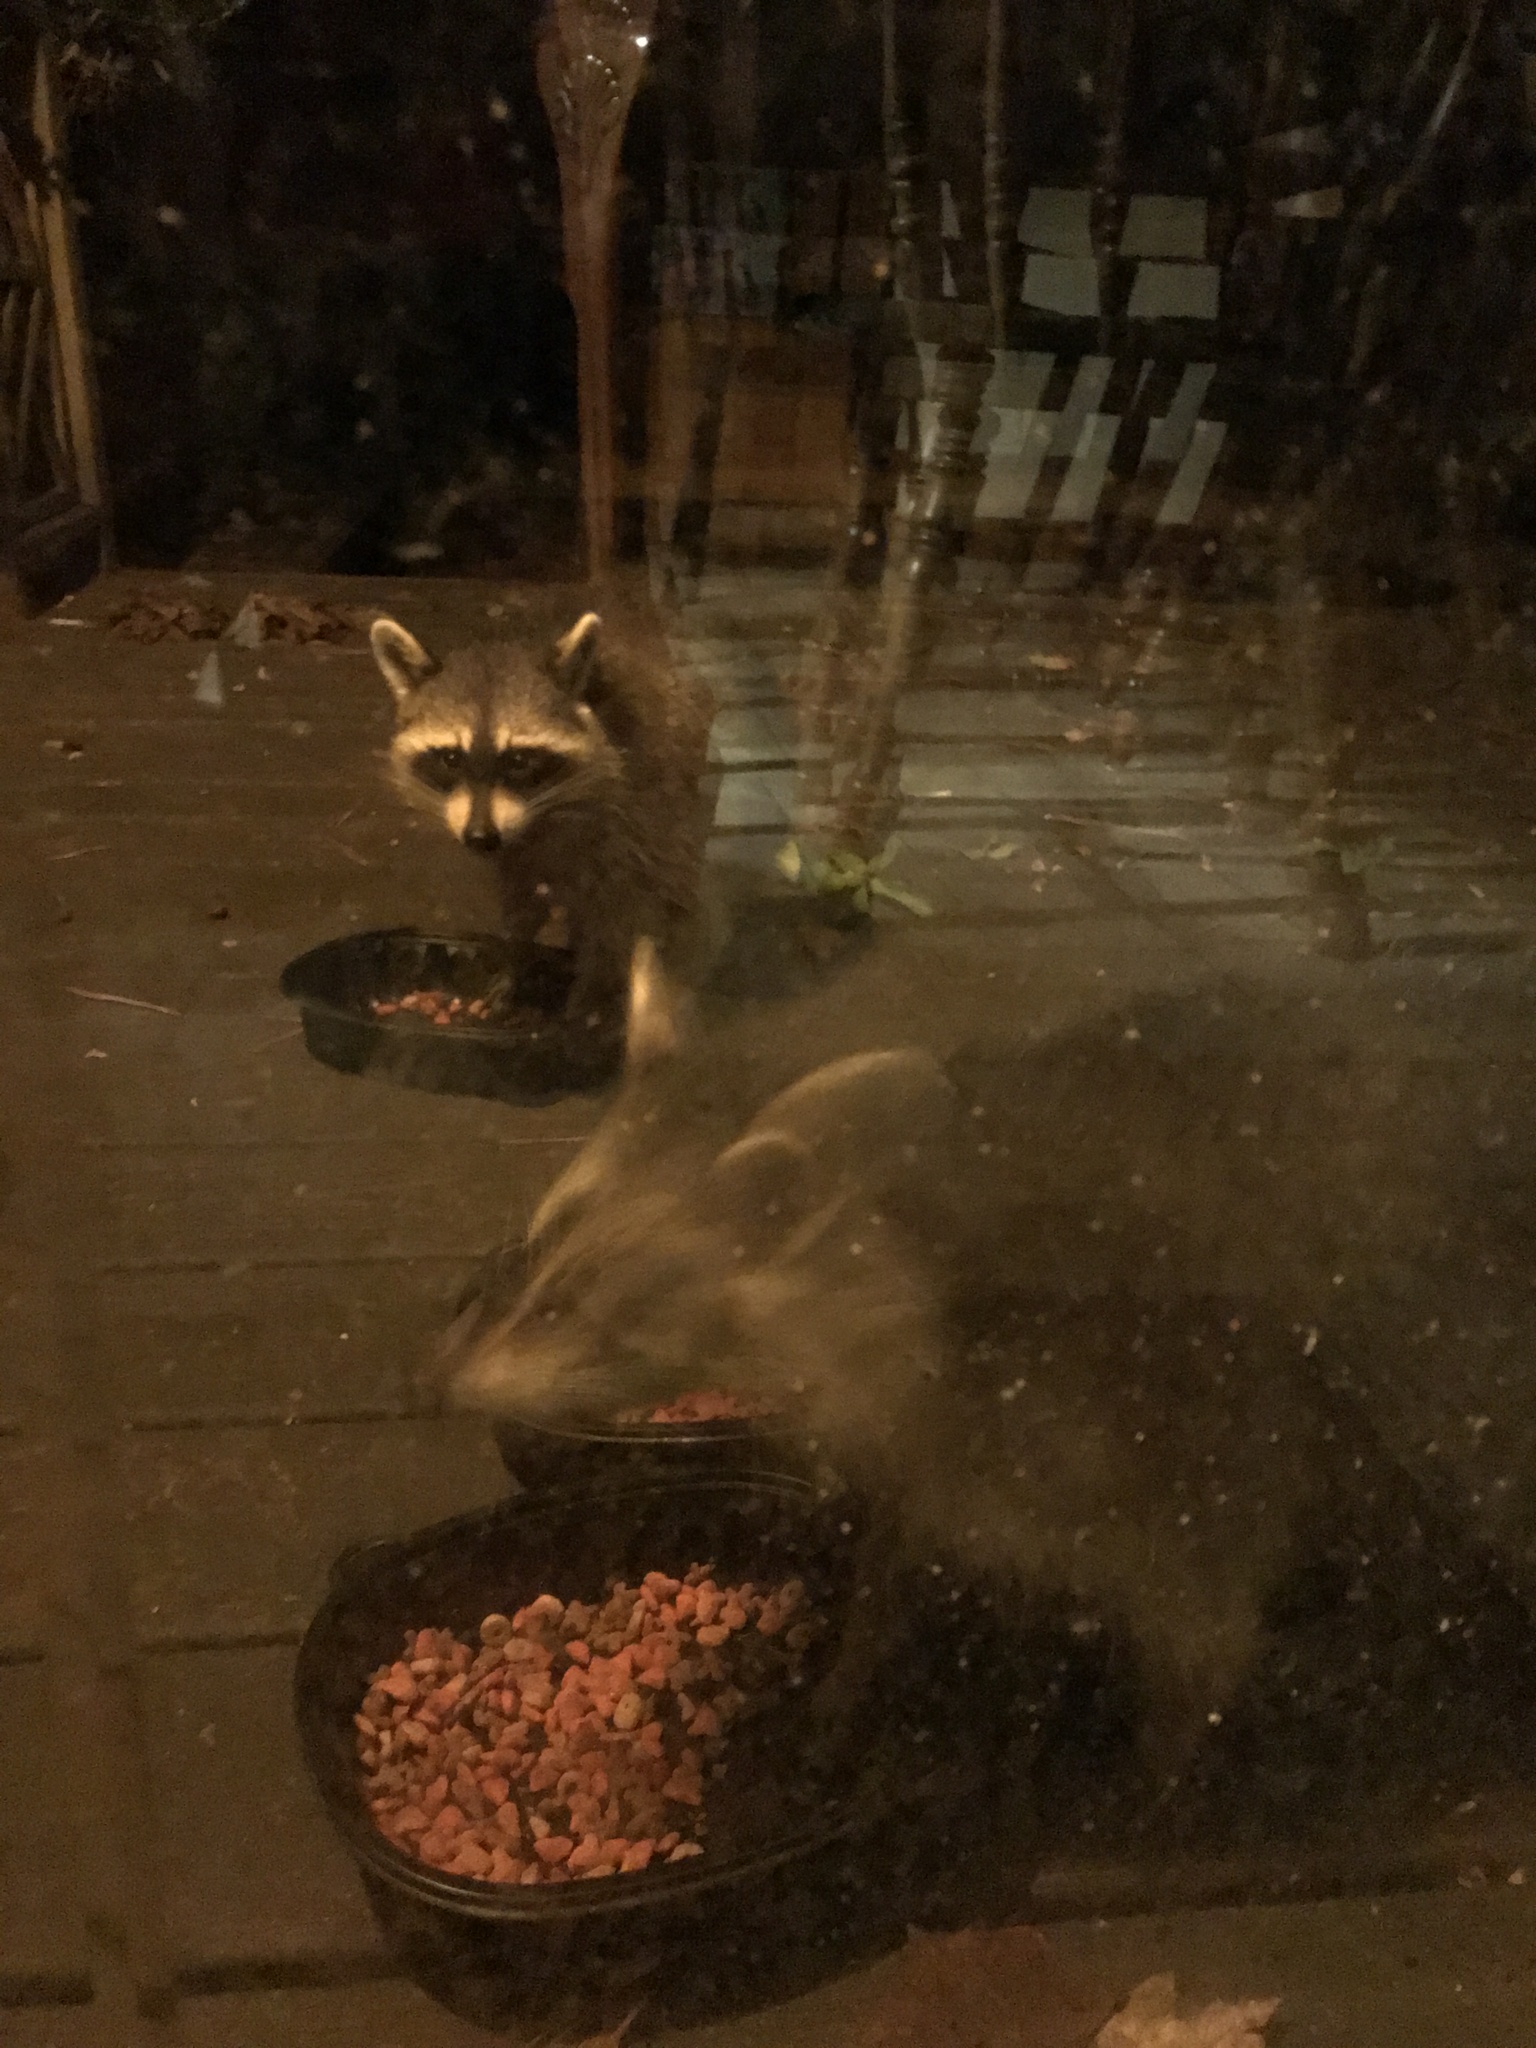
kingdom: Animalia
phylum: Chordata
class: Mammalia
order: Carnivora
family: Procyonidae
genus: Procyon
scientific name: Procyon lotor
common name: Raccoon
